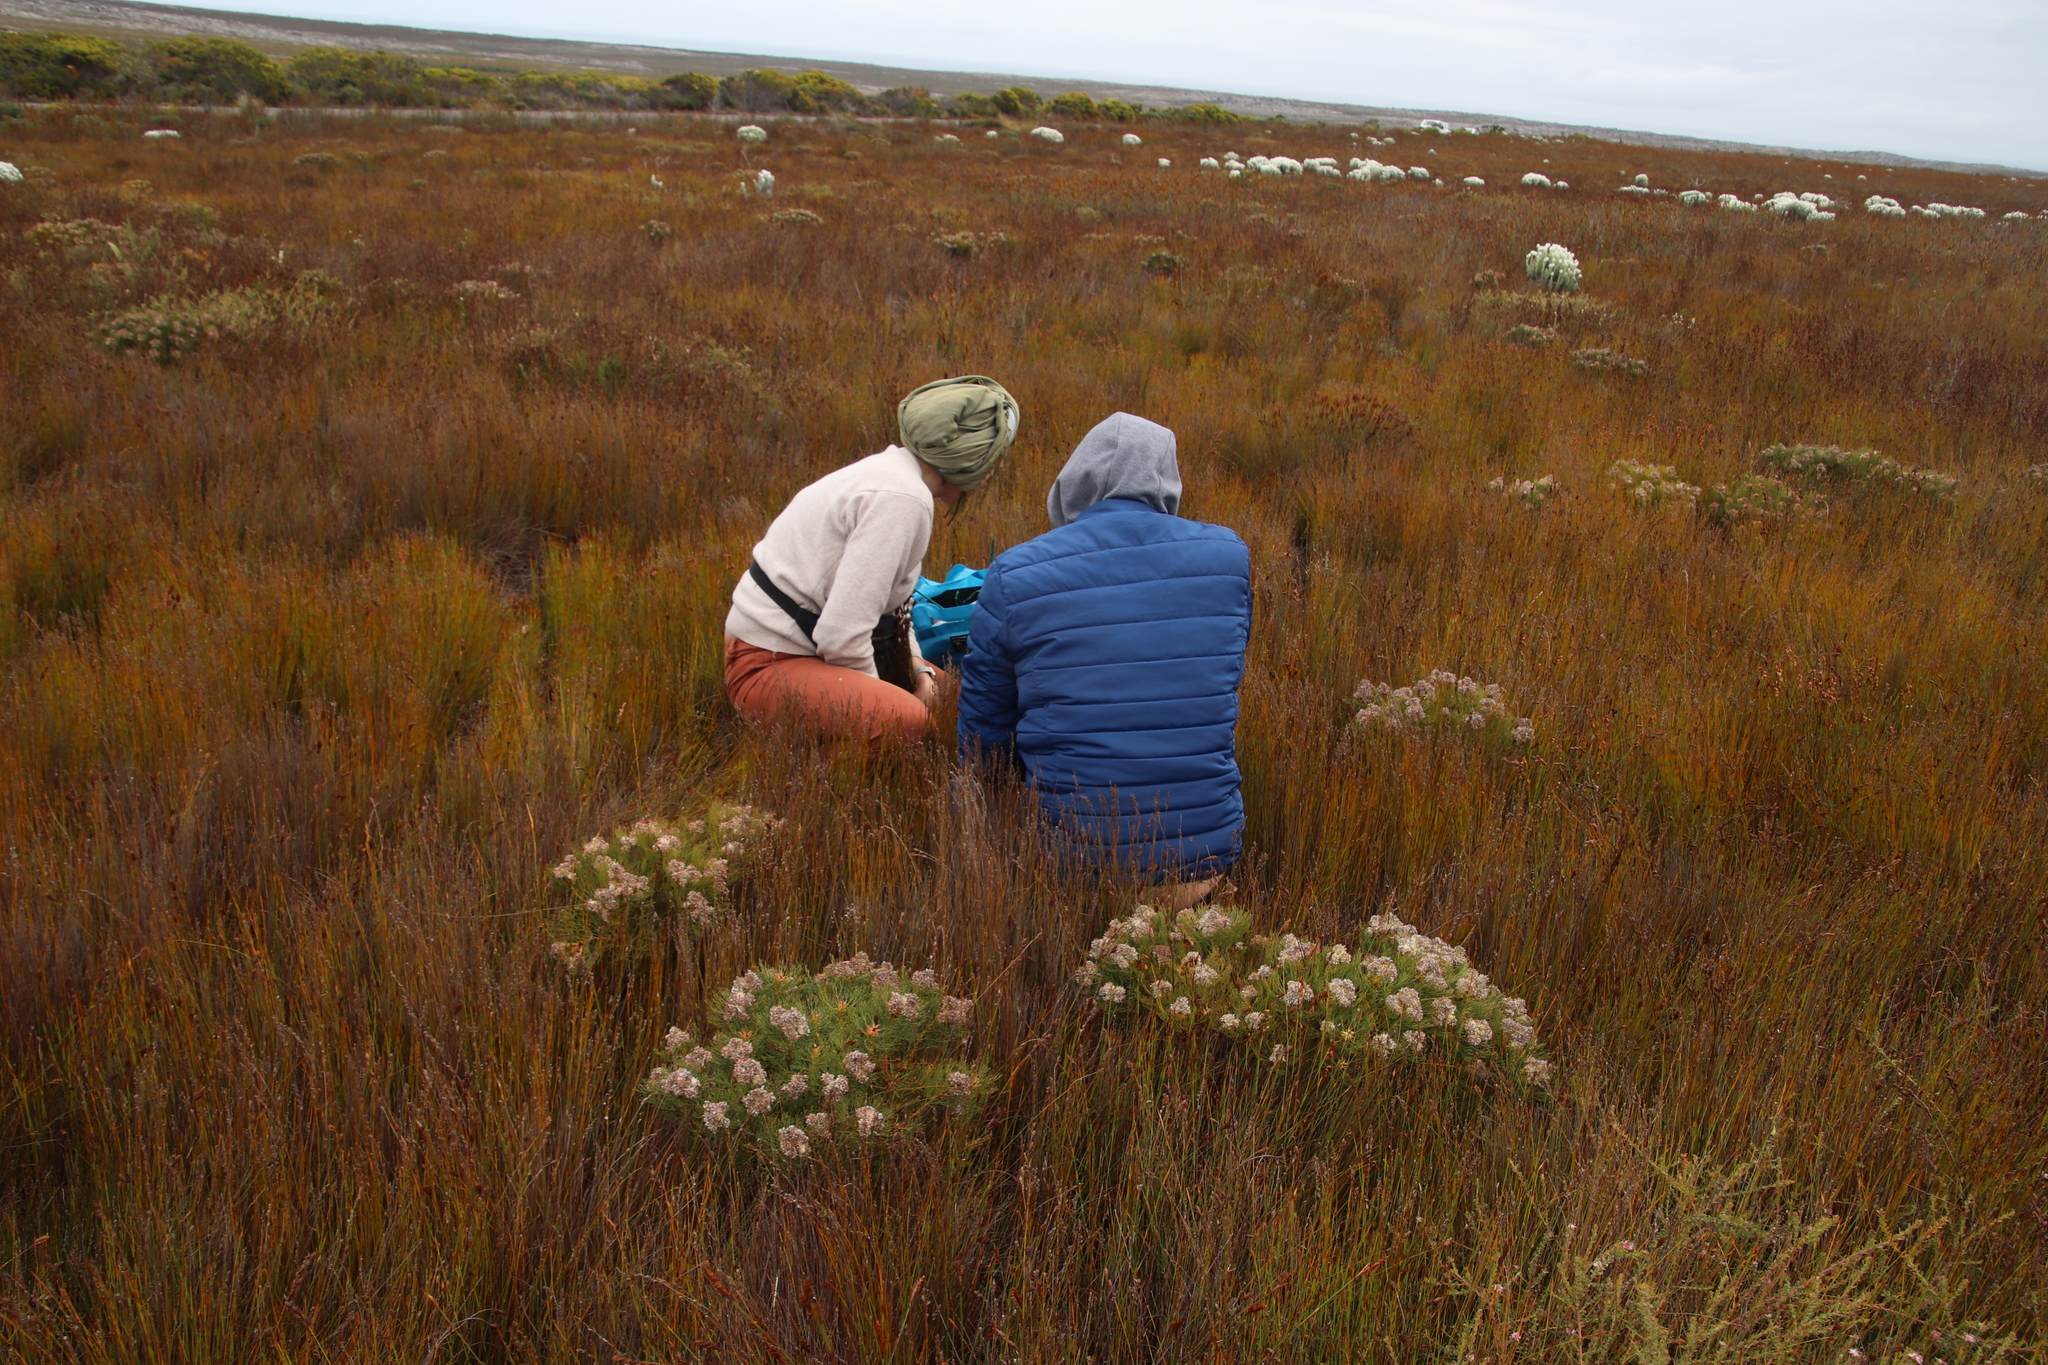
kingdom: Plantae
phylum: Tracheophyta
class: Magnoliopsida
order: Proteales
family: Proteaceae
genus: Serruria
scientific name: Serruria glomerata
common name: Cluster spiderhead
